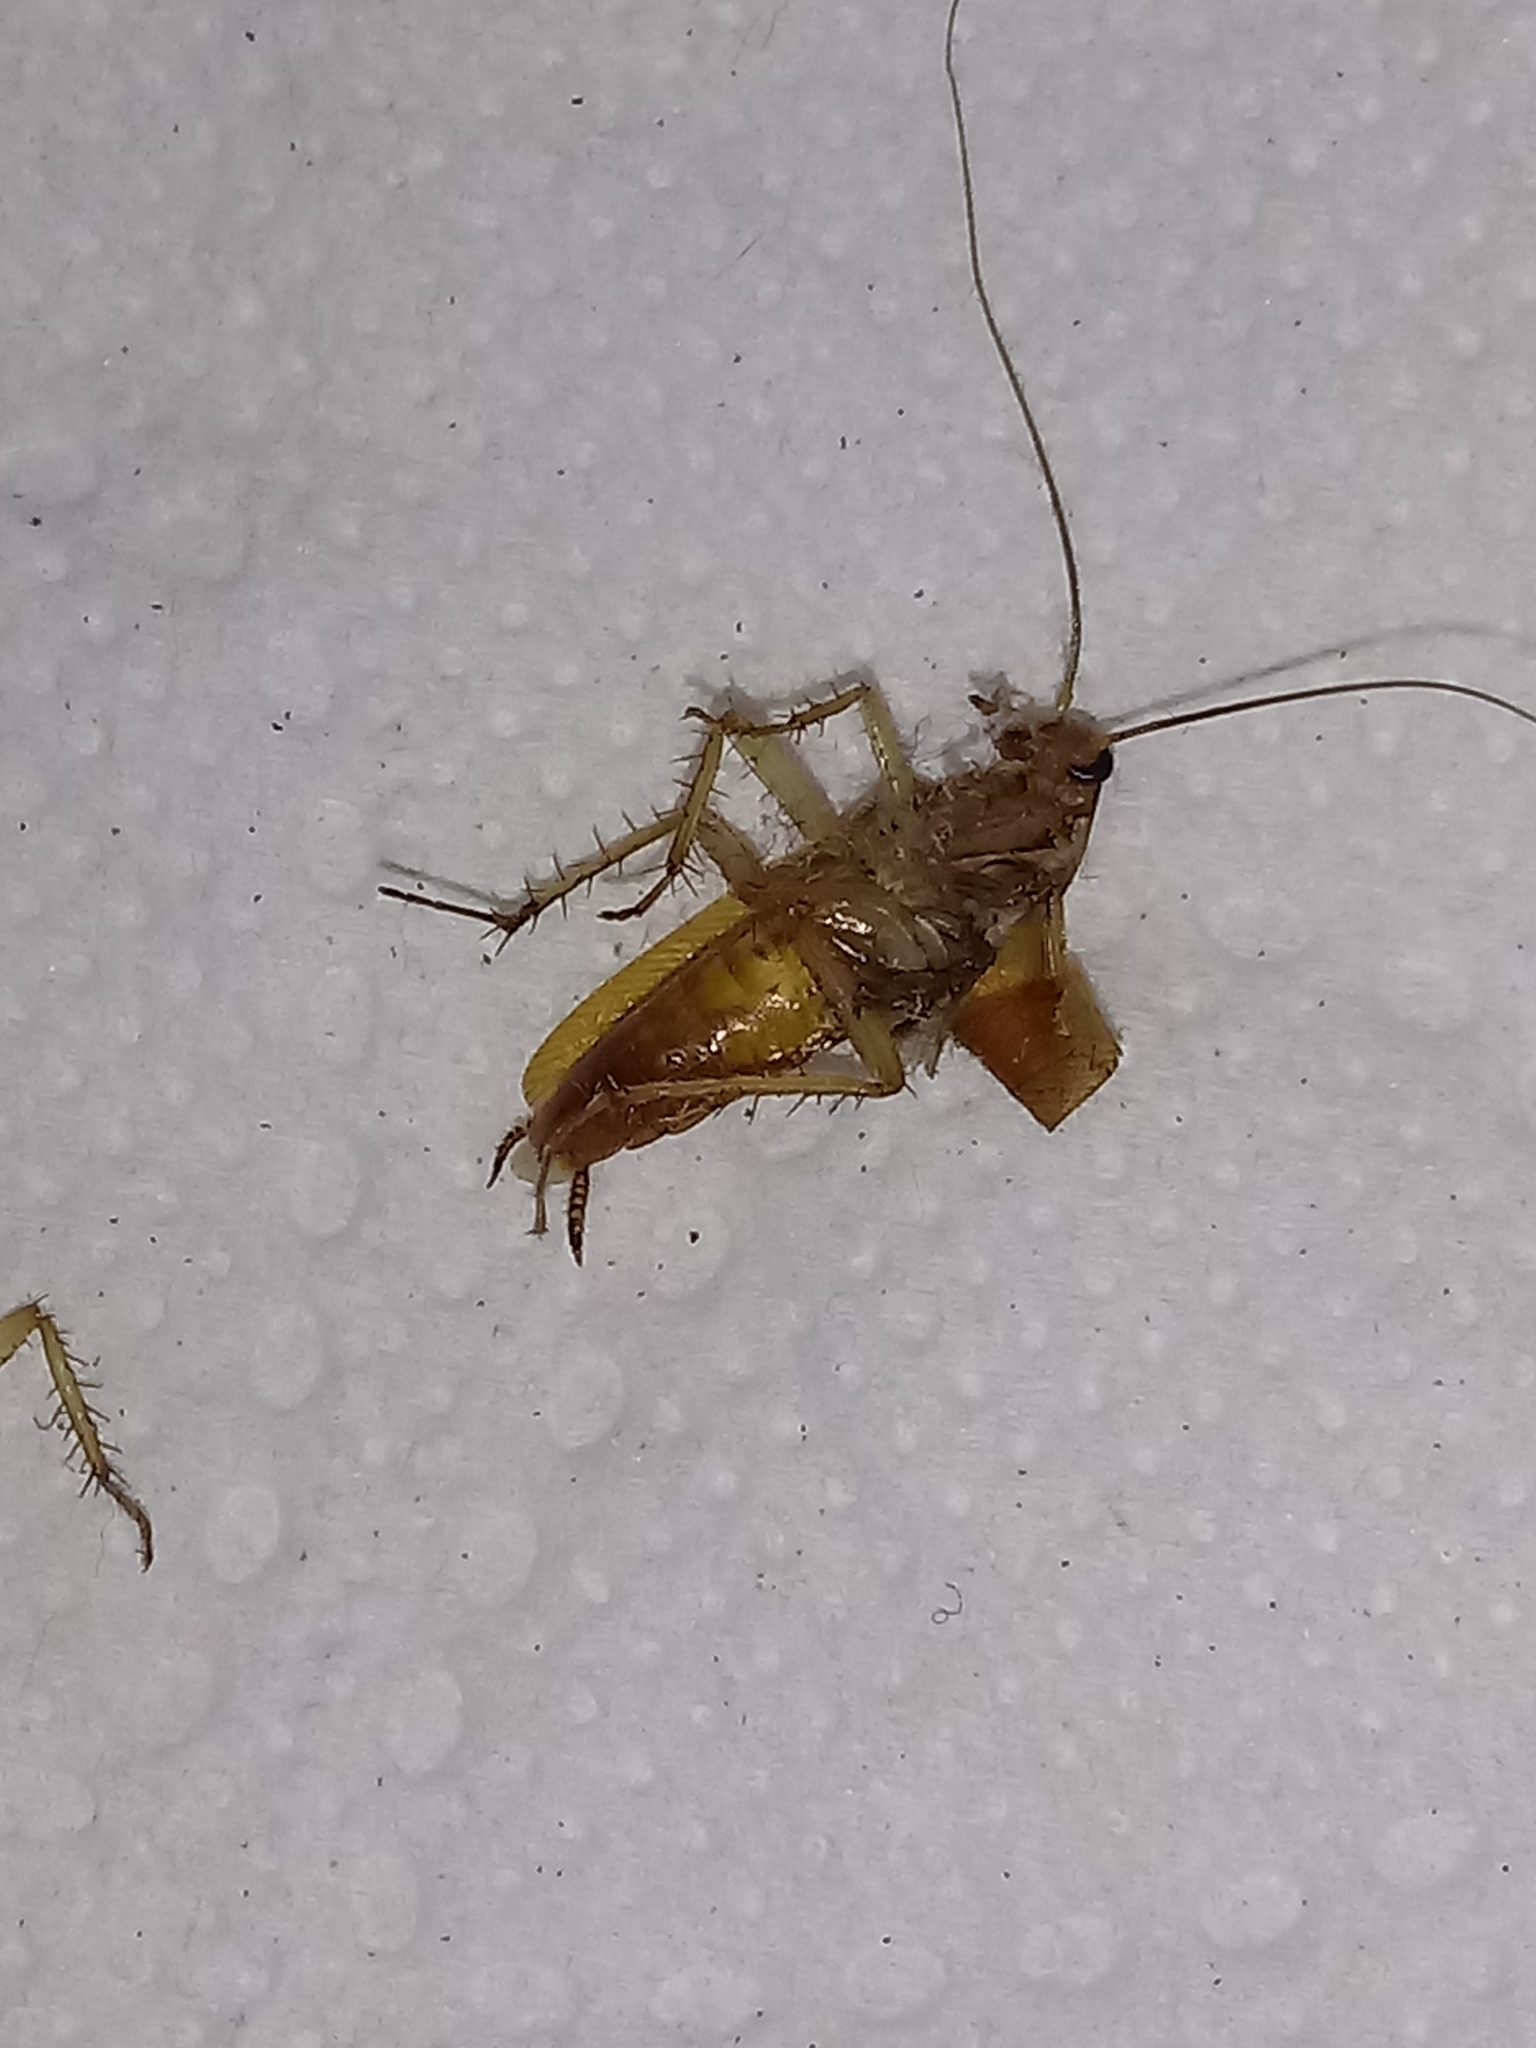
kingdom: Animalia
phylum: Arthropoda
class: Insecta
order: Blattodea
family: Ectobiidae
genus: Blattella
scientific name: Blattella germanica
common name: German cockroach
